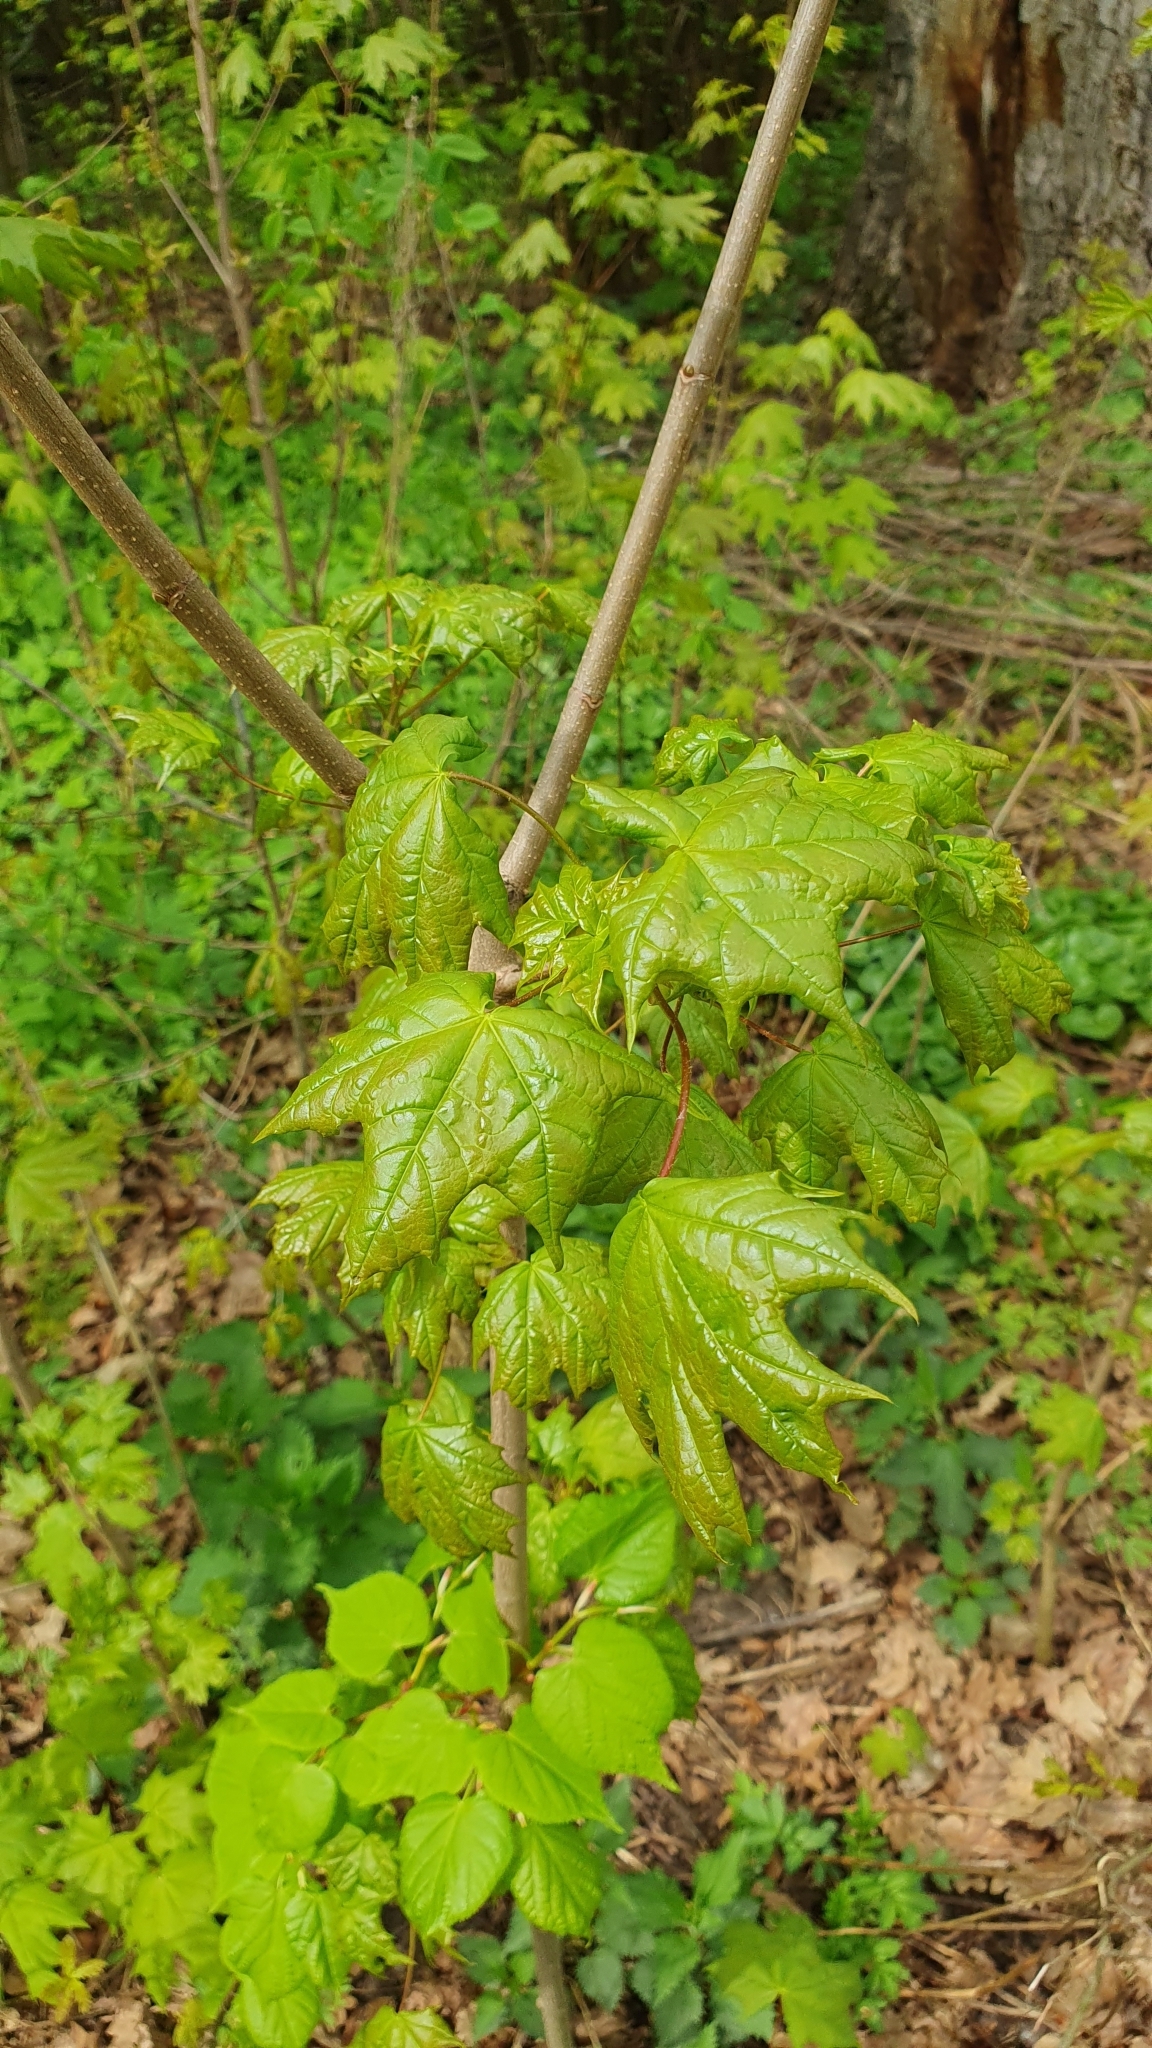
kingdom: Plantae
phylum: Tracheophyta
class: Magnoliopsida
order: Sapindales
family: Sapindaceae
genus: Acer
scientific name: Acer platanoides
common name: Norway maple
